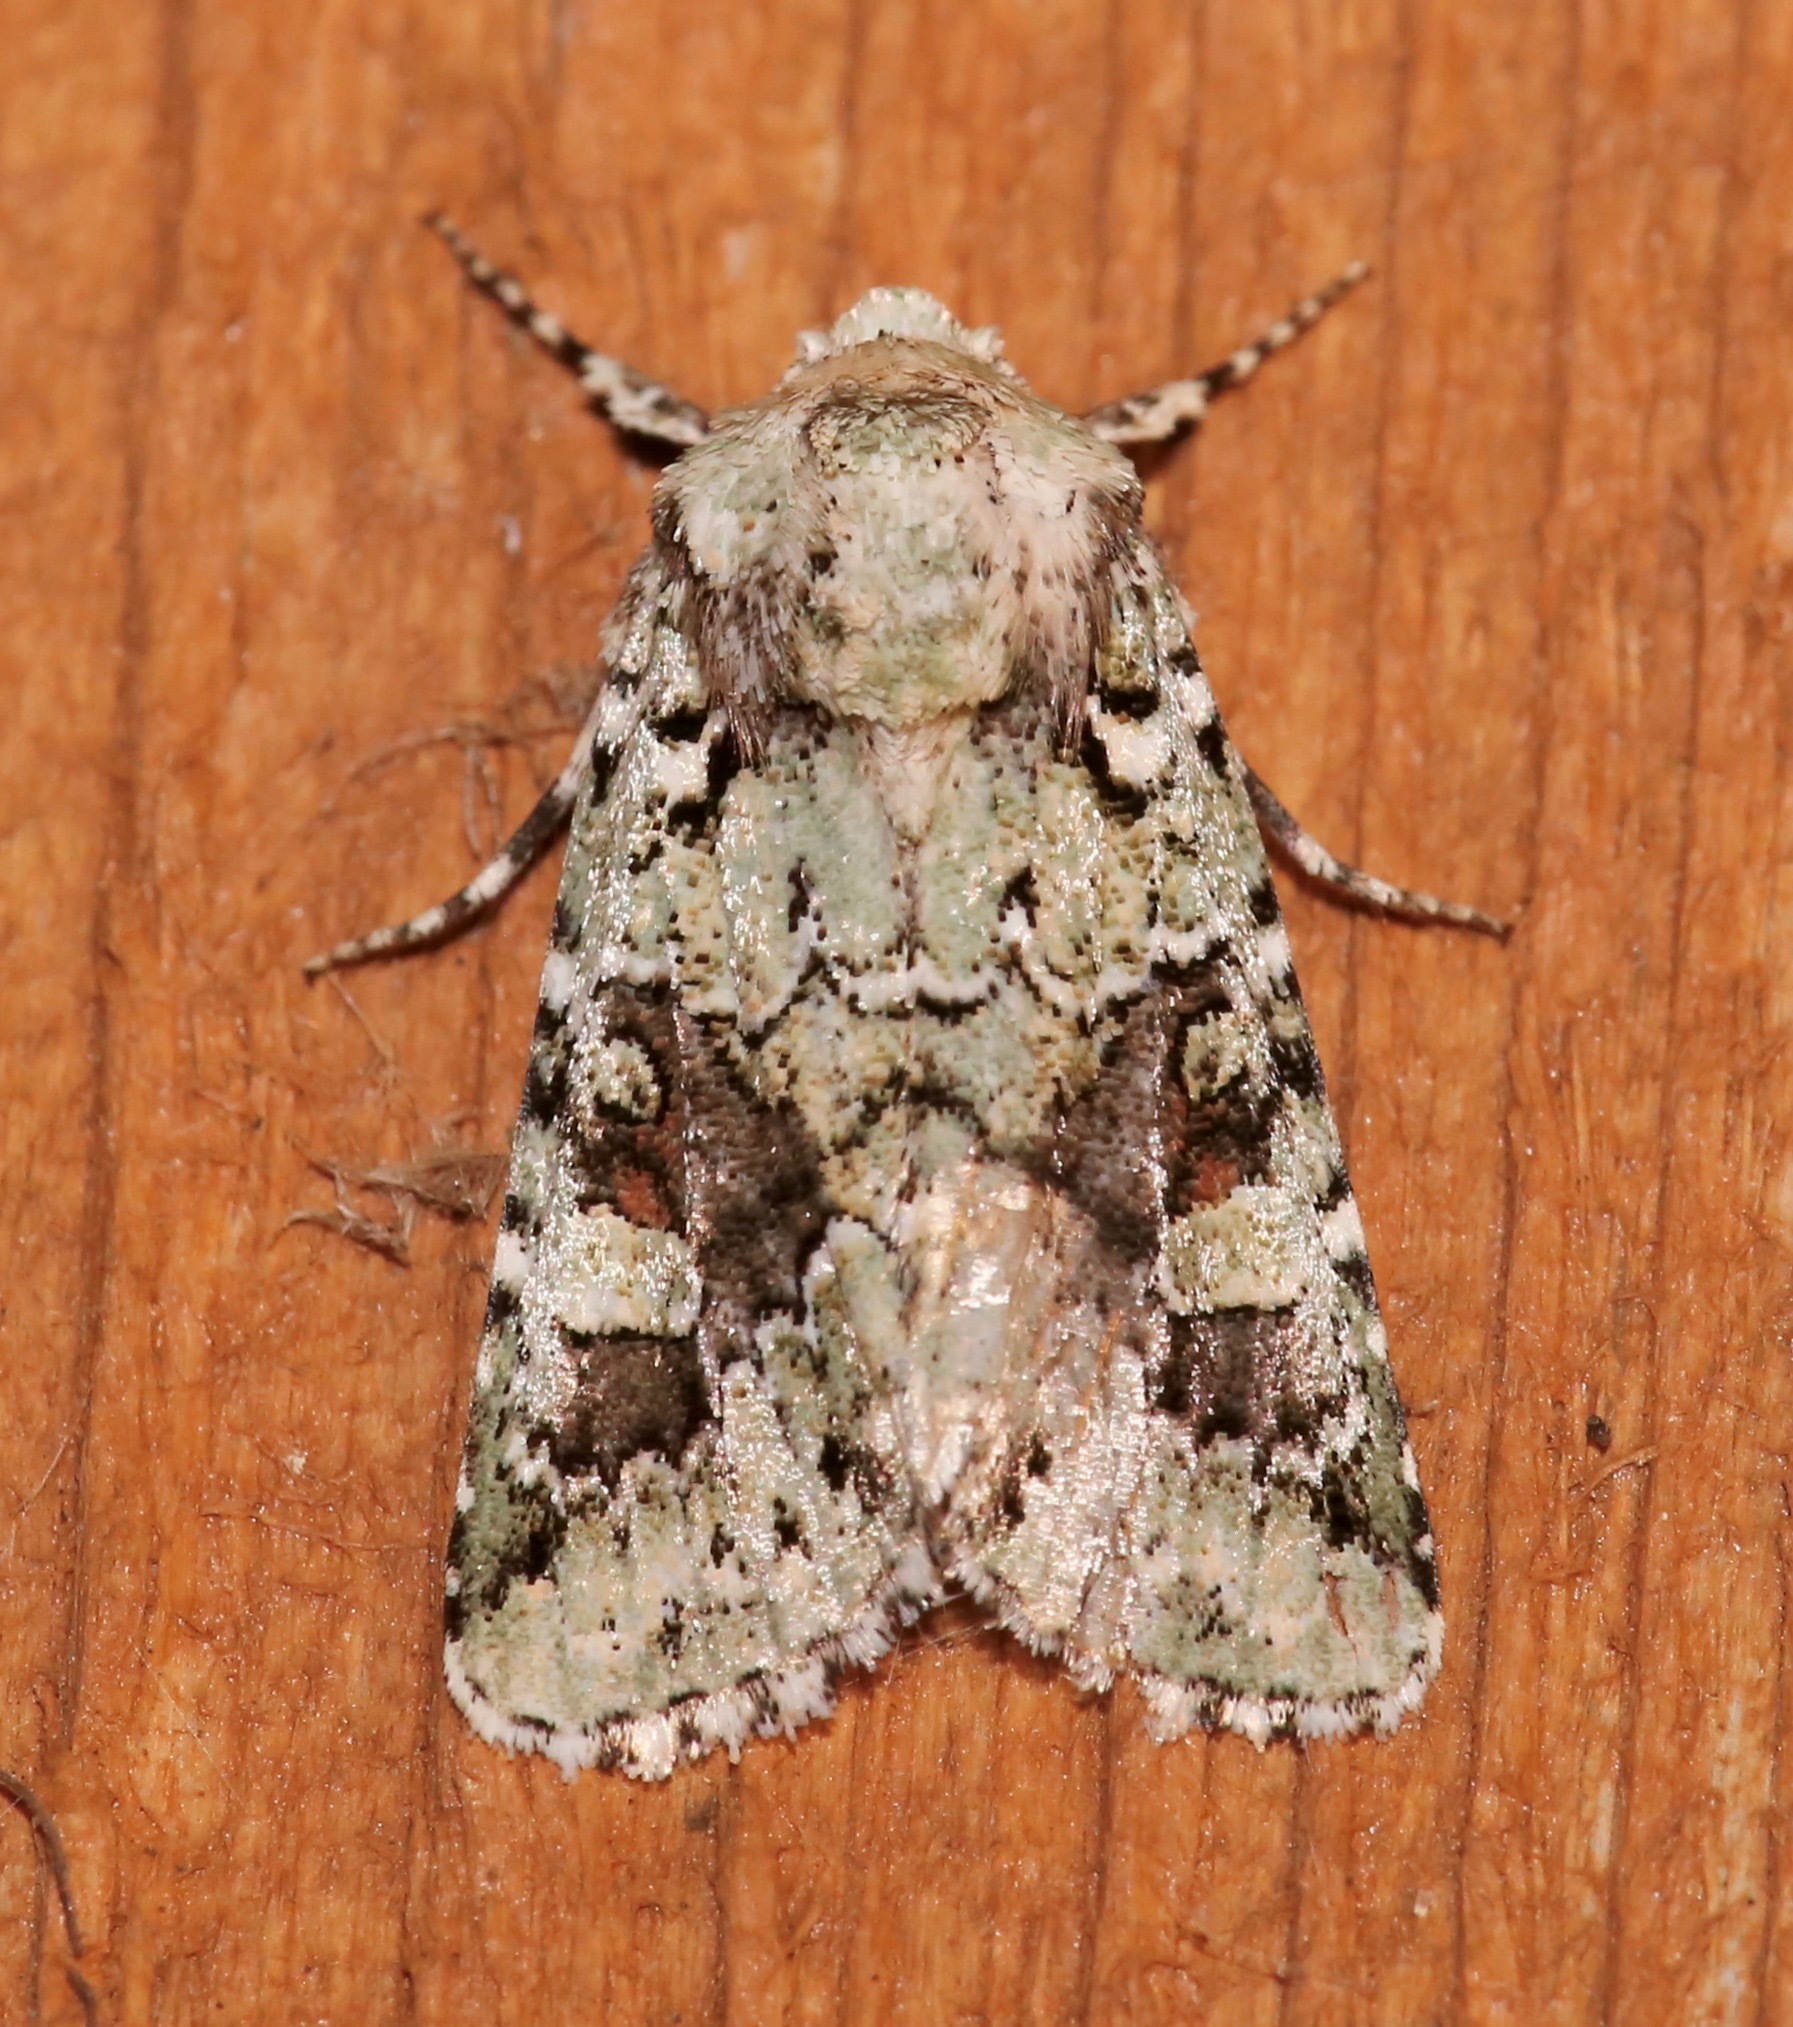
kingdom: Animalia
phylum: Arthropoda
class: Insecta
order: Lepidoptera
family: Noctuidae
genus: Lacinipolia
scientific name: Lacinipolia laudabilis
